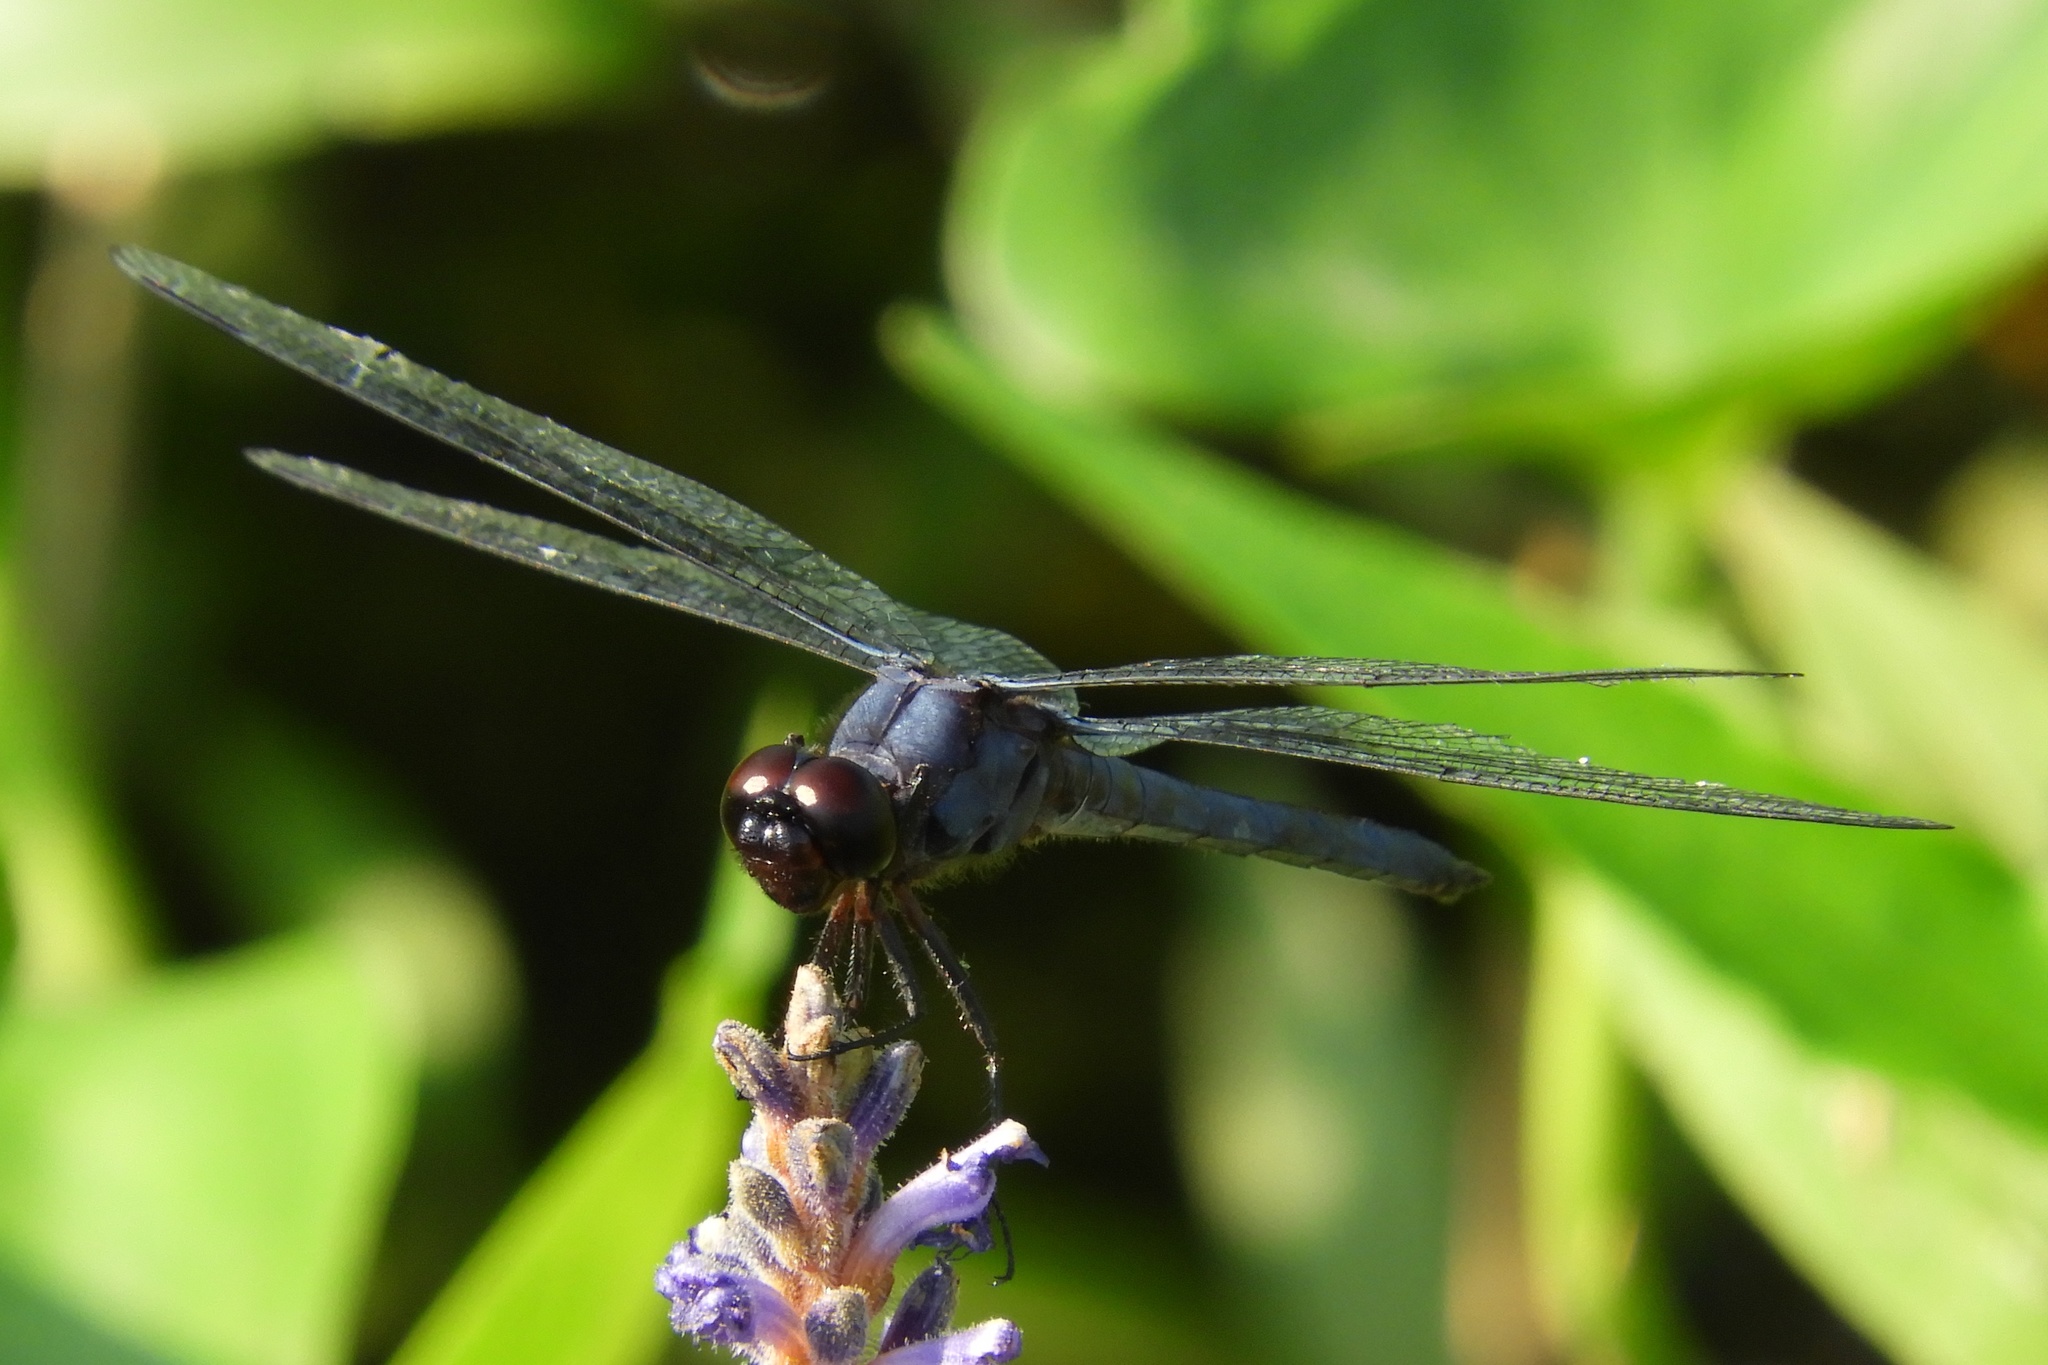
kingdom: Animalia
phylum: Arthropoda
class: Insecta
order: Odonata
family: Libellulidae
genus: Libellula
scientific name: Libellula incesta
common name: Slaty skimmer
